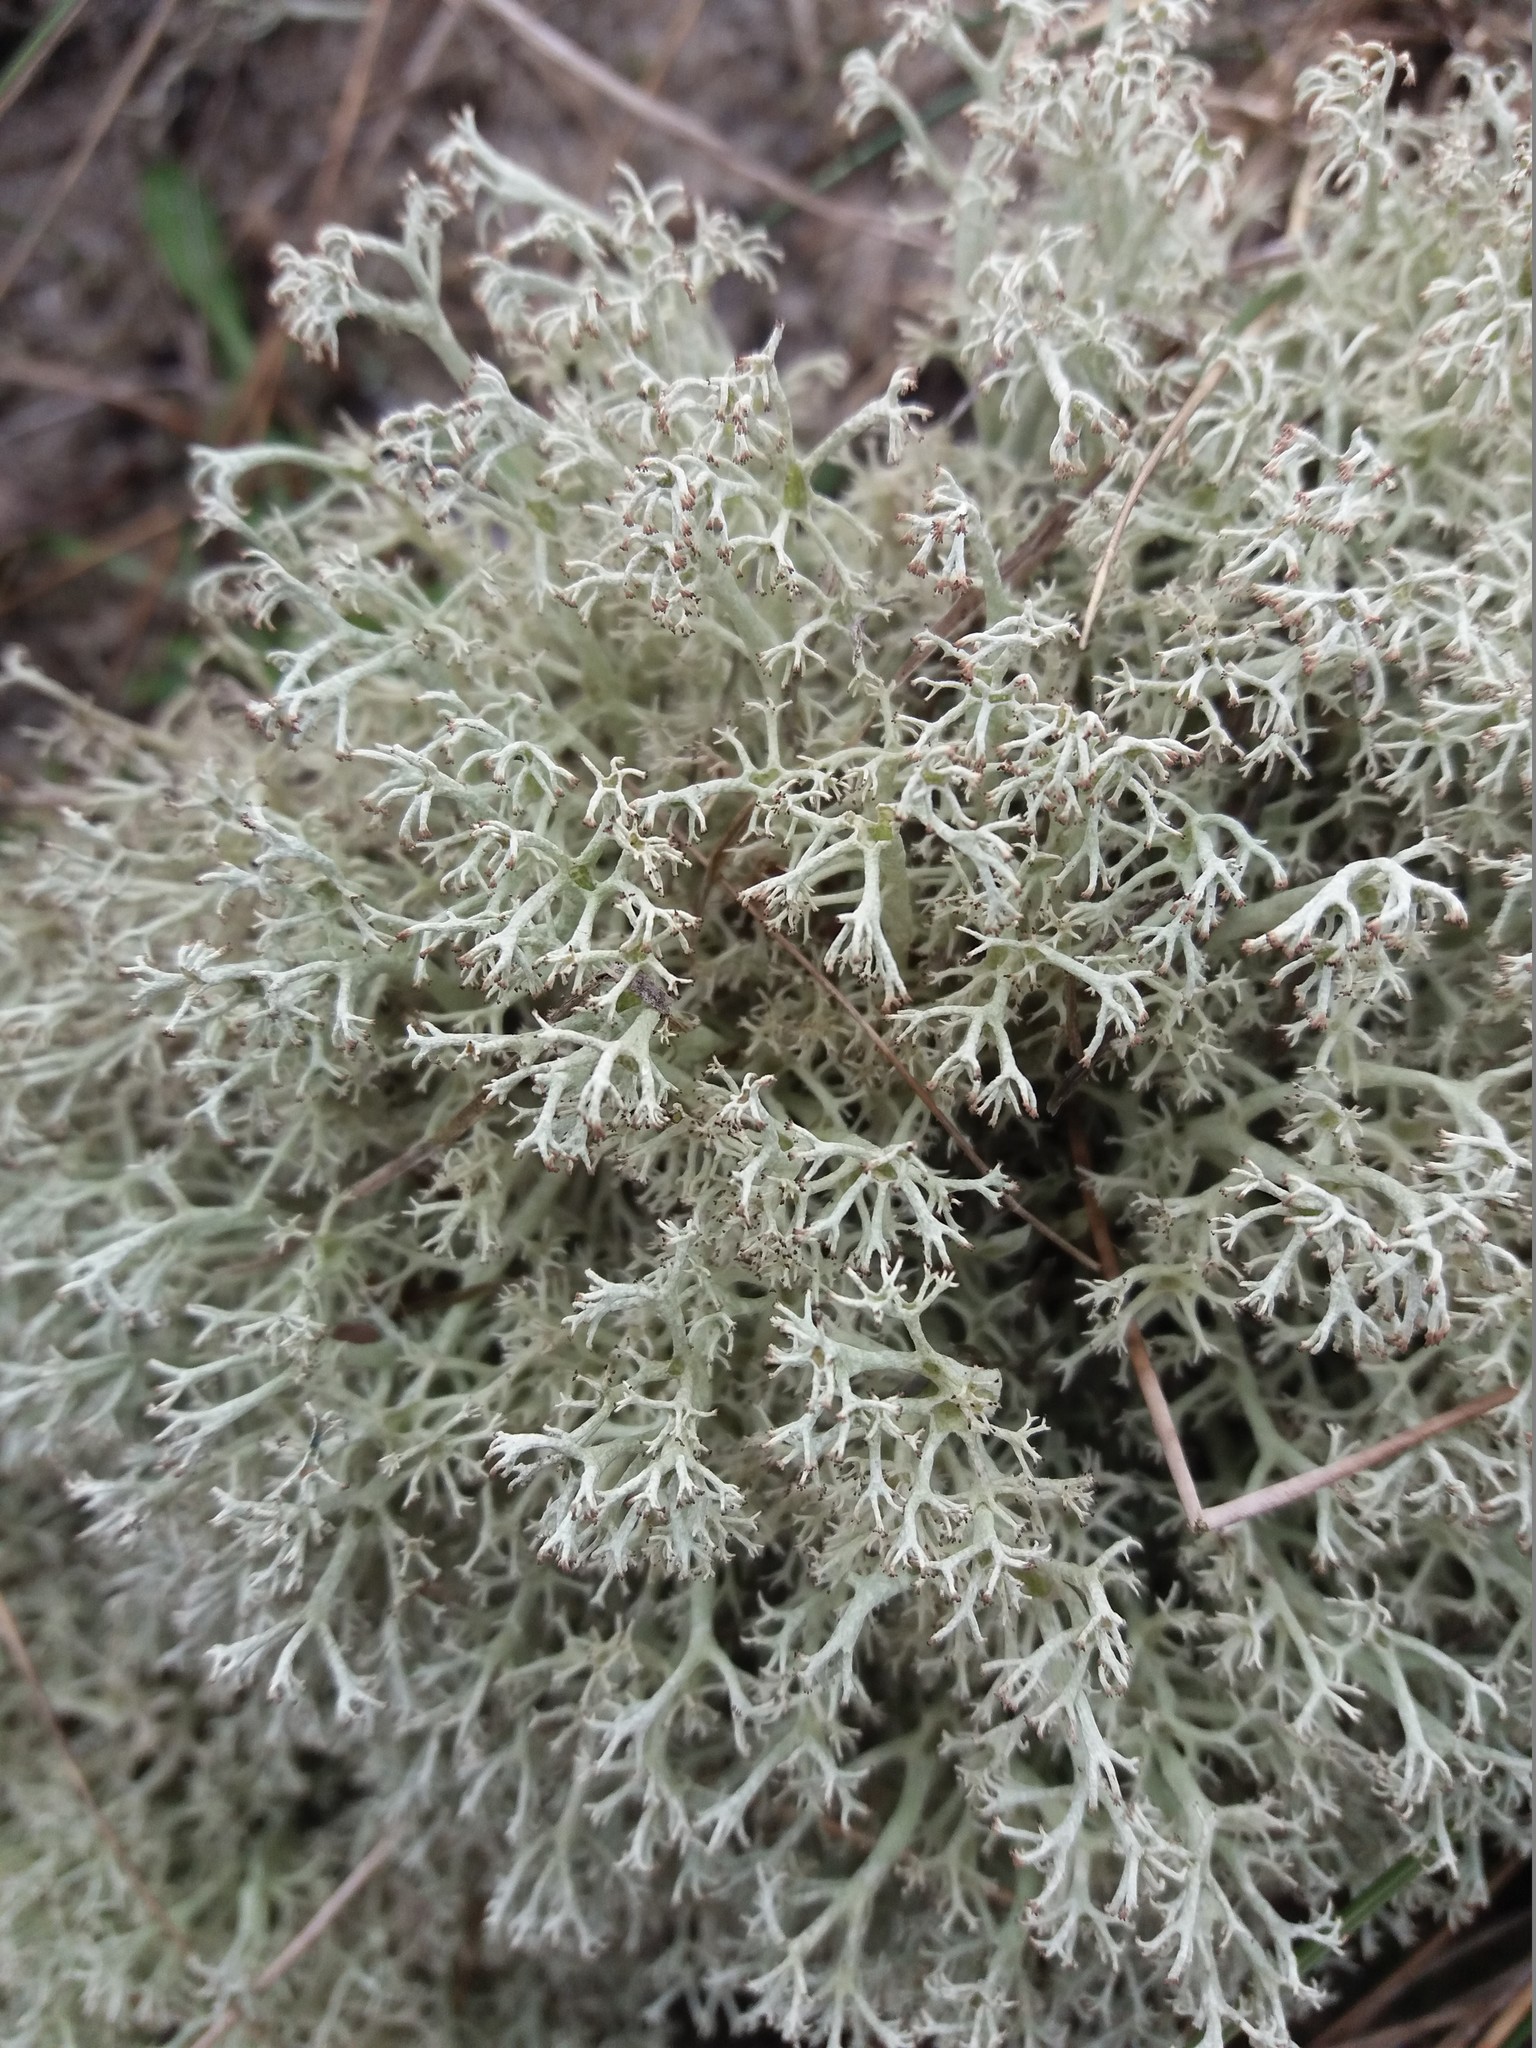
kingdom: Fungi
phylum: Ascomycota
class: Lecanoromycetes
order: Lecanorales
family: Cladoniaceae
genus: Cladonia
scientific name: Cladonia mitis
